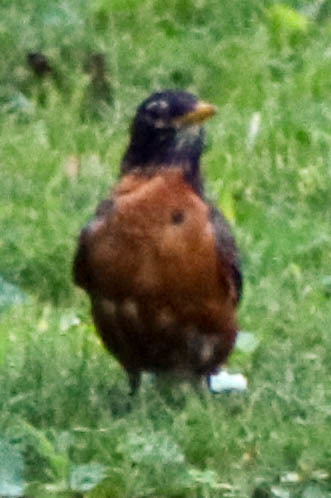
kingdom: Animalia
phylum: Chordata
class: Aves
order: Passeriformes
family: Turdidae
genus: Turdus
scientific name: Turdus migratorius
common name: American robin
